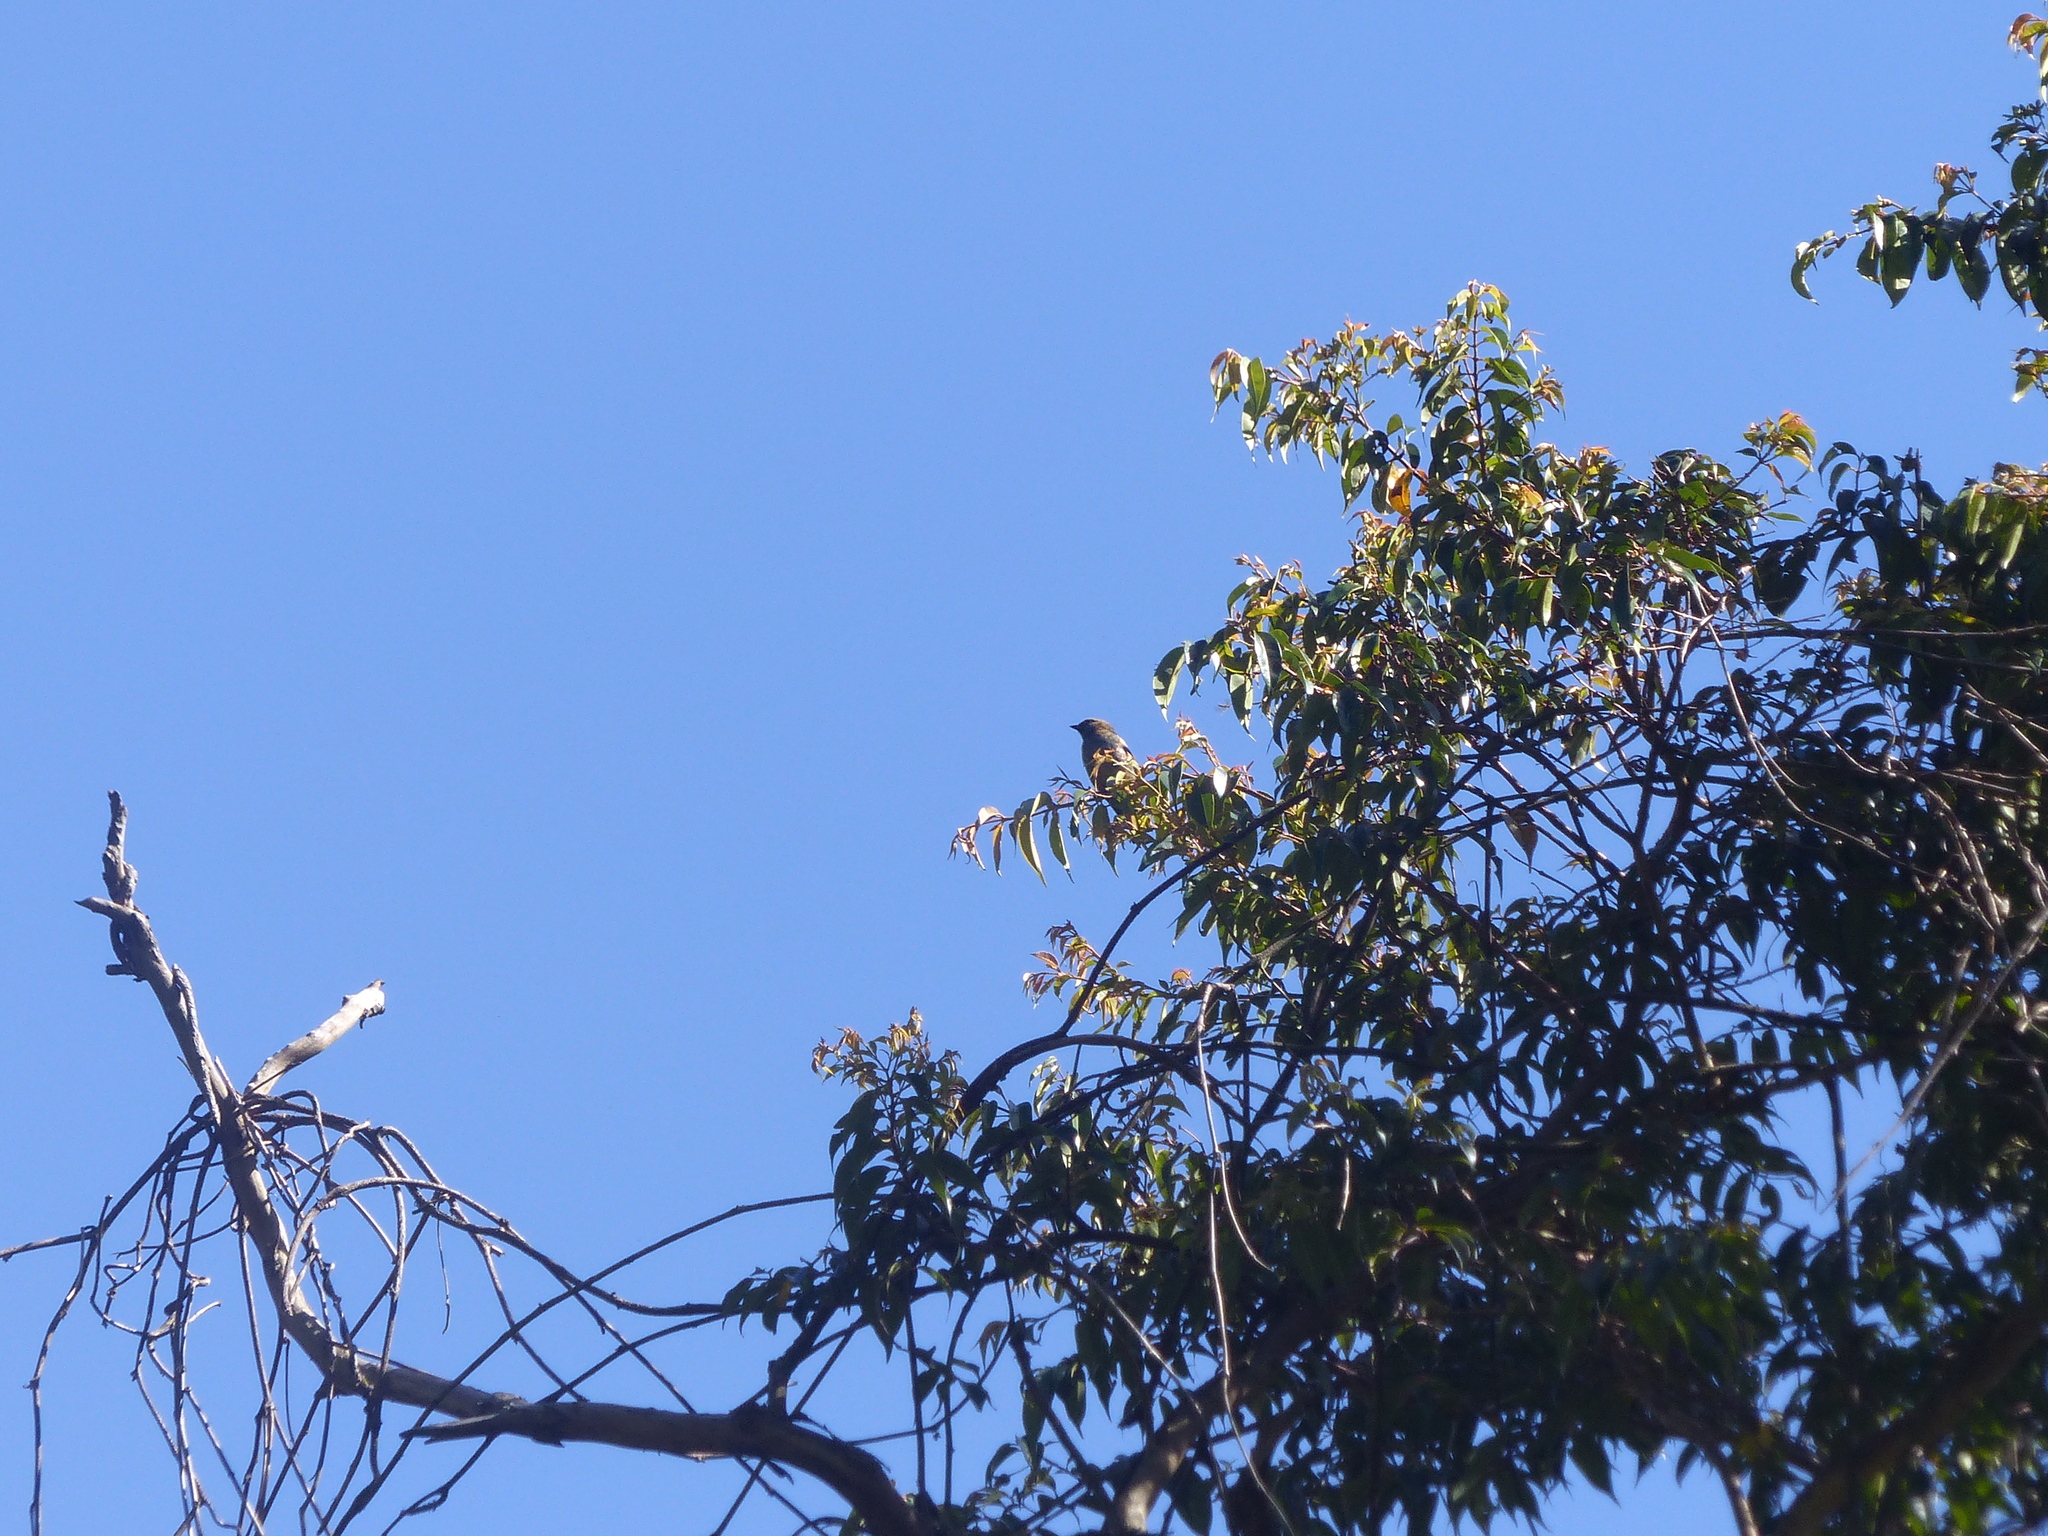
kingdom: Animalia
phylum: Chordata
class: Aves
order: Passeriformes
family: Thraupidae
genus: Stilpnia
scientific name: Stilpnia cyanicollis
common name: Blue-necked tanager
